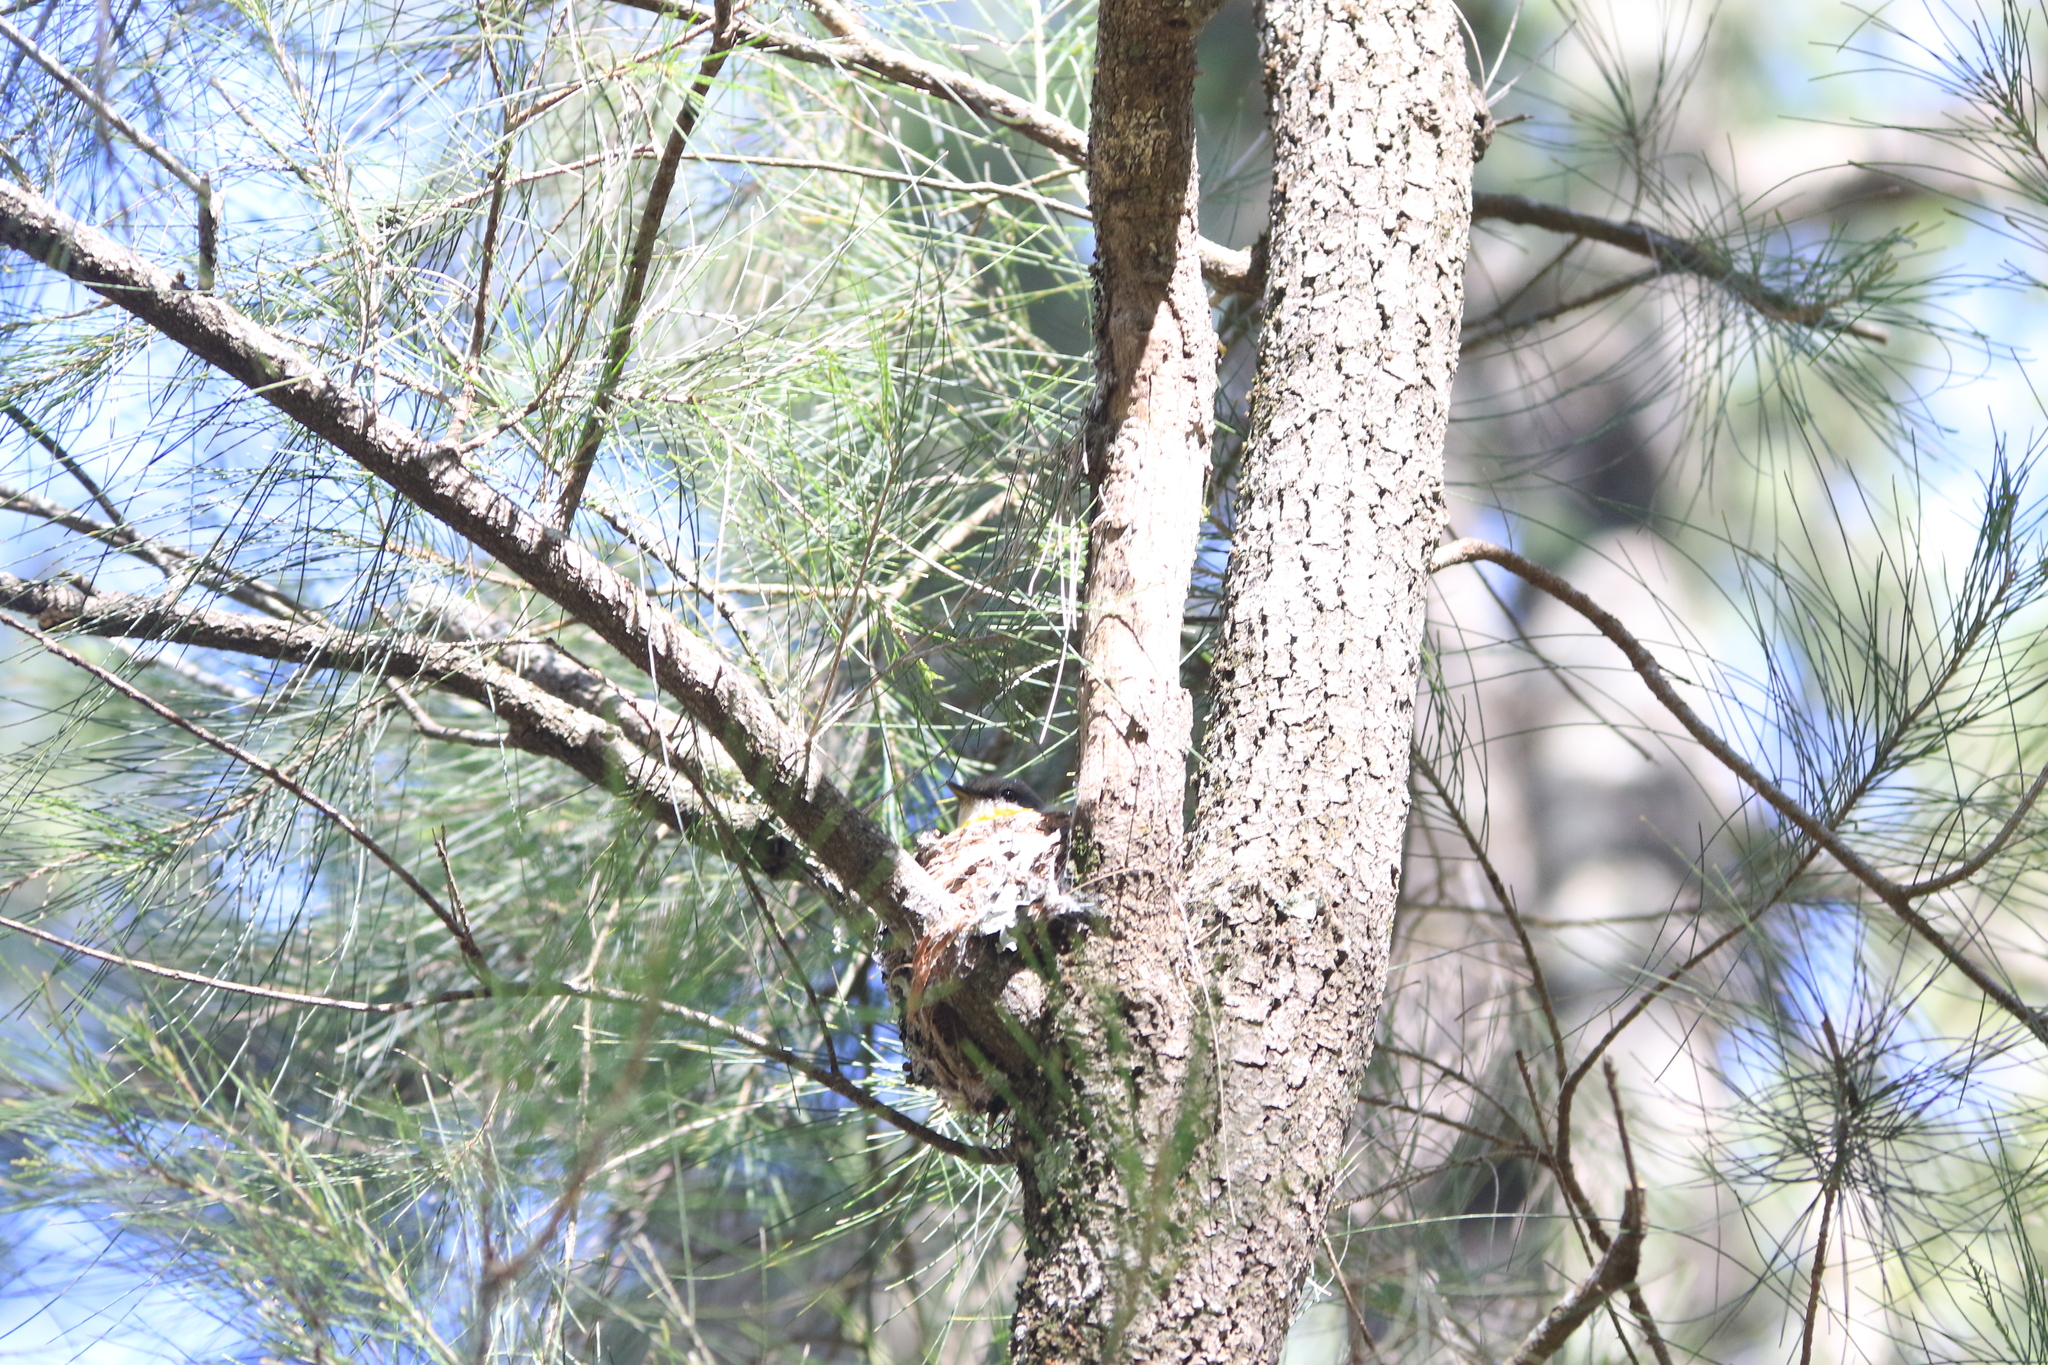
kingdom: Animalia
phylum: Chordata
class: Aves
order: Passeriformes
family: Petroicidae
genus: Eopsaltria
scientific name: Eopsaltria australis
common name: Eastern yellow robin
